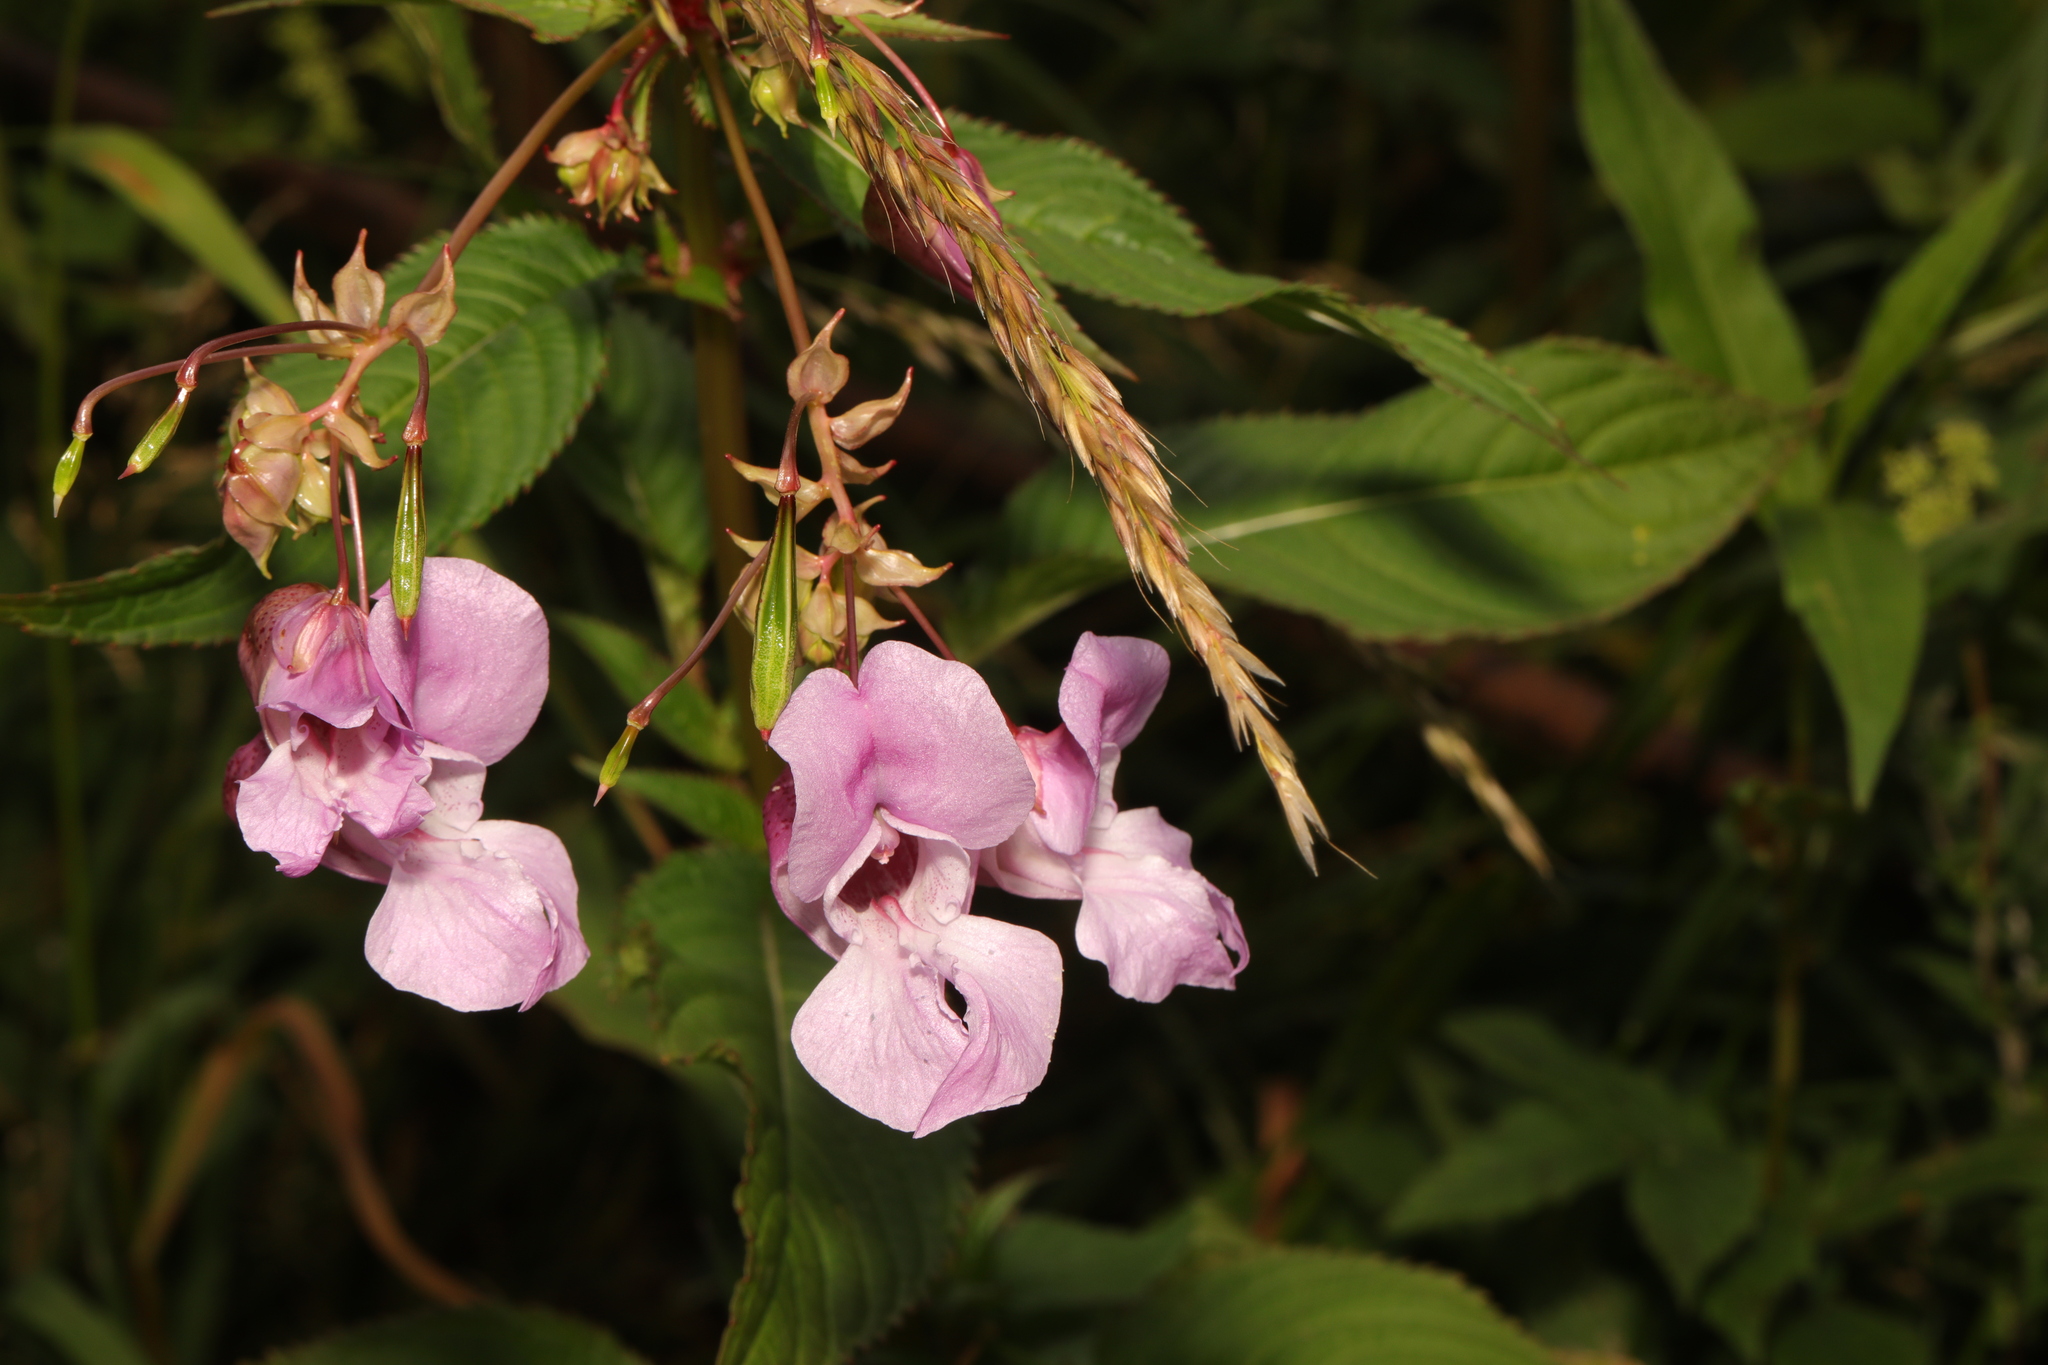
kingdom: Plantae
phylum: Tracheophyta
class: Magnoliopsida
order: Ericales
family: Balsaminaceae
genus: Impatiens
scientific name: Impatiens glandulifera
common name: Himalayan balsam
